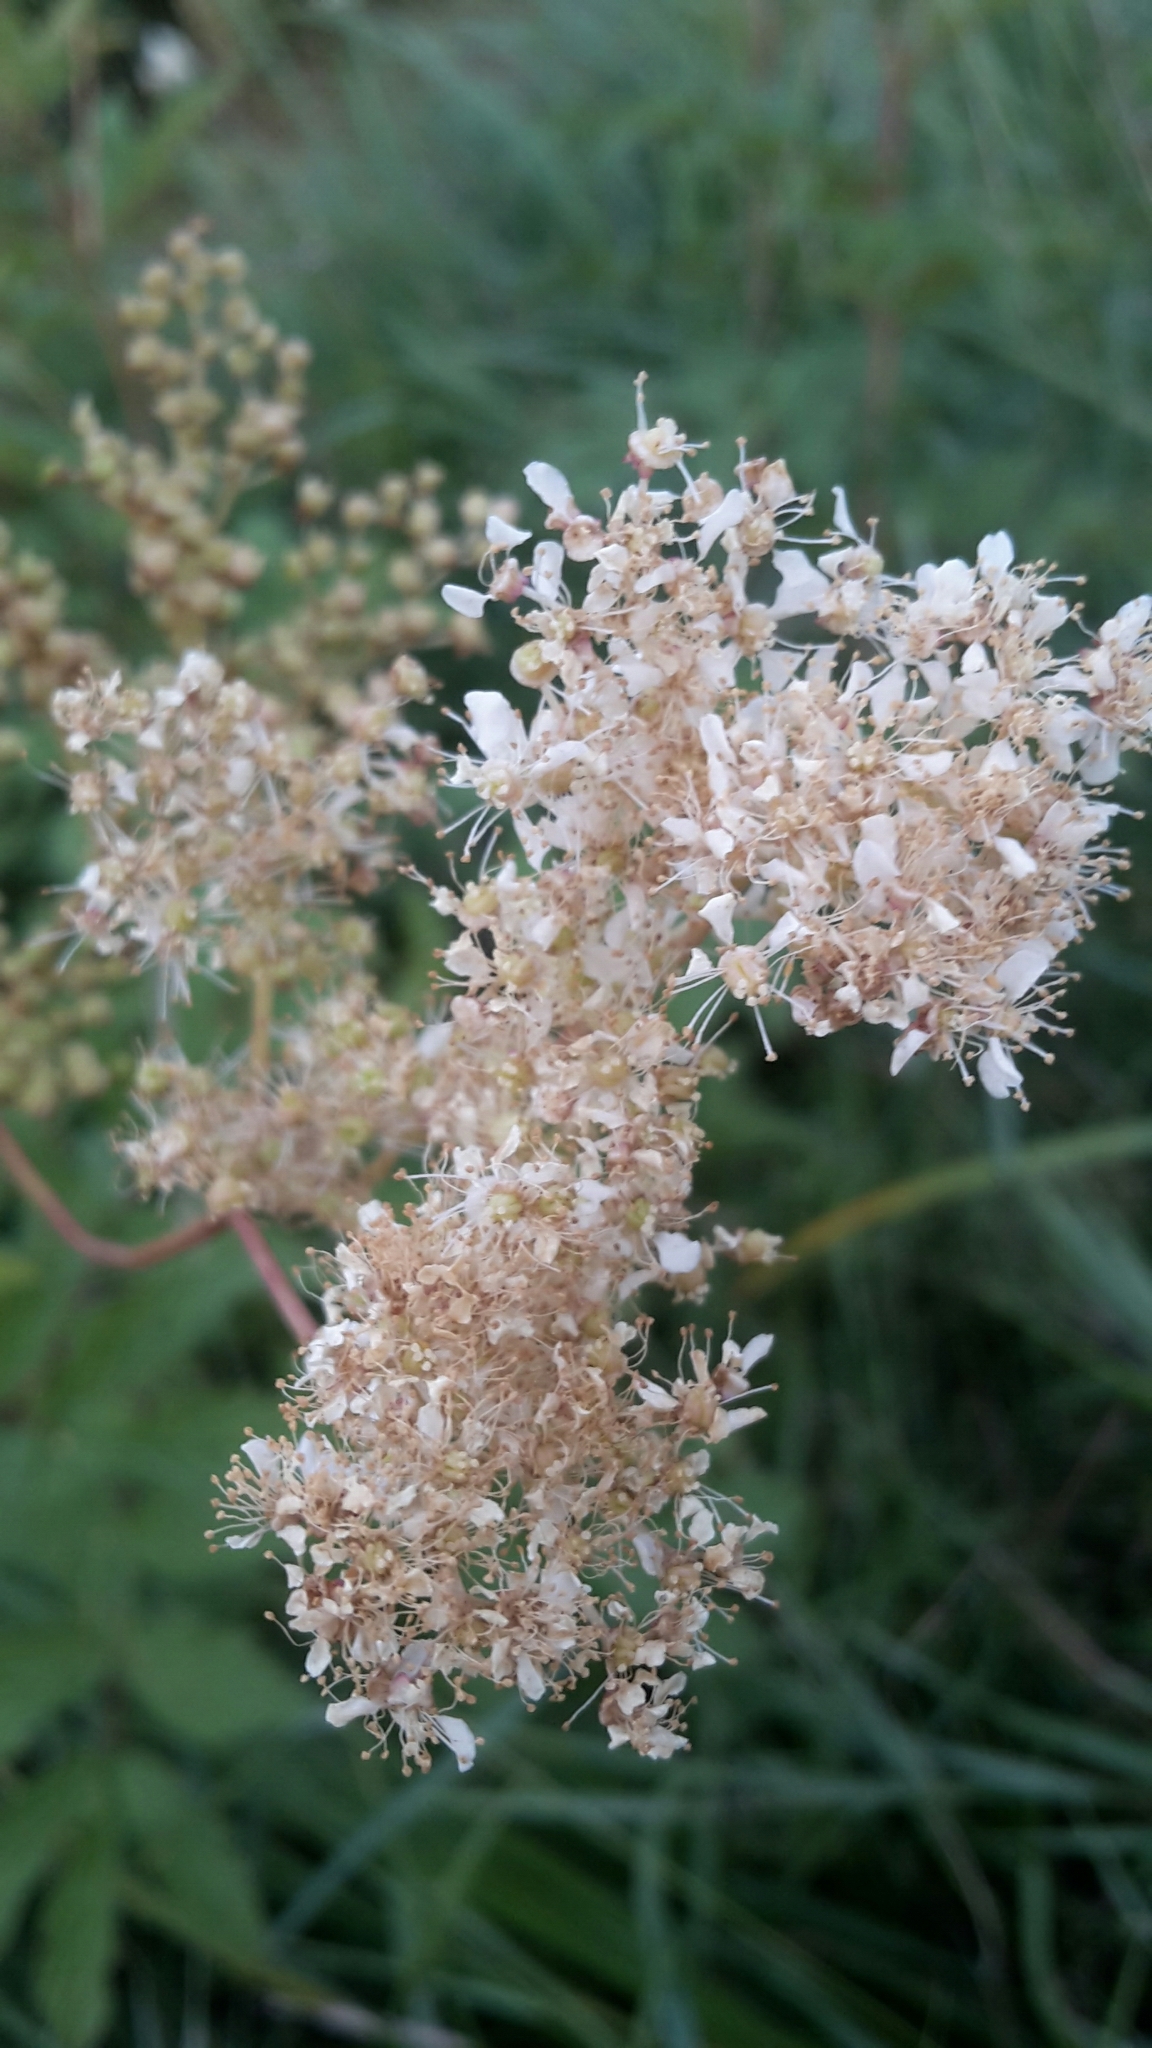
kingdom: Plantae
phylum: Tracheophyta
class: Magnoliopsida
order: Rosales
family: Rosaceae
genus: Filipendula
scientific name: Filipendula ulmaria
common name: Meadowsweet
